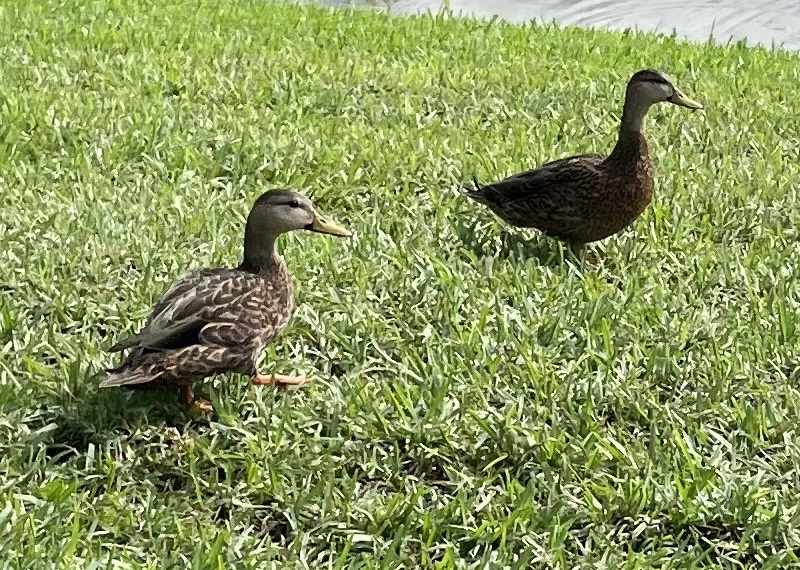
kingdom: Animalia
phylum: Chordata
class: Aves
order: Anseriformes
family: Anatidae
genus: Anas
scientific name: Anas
